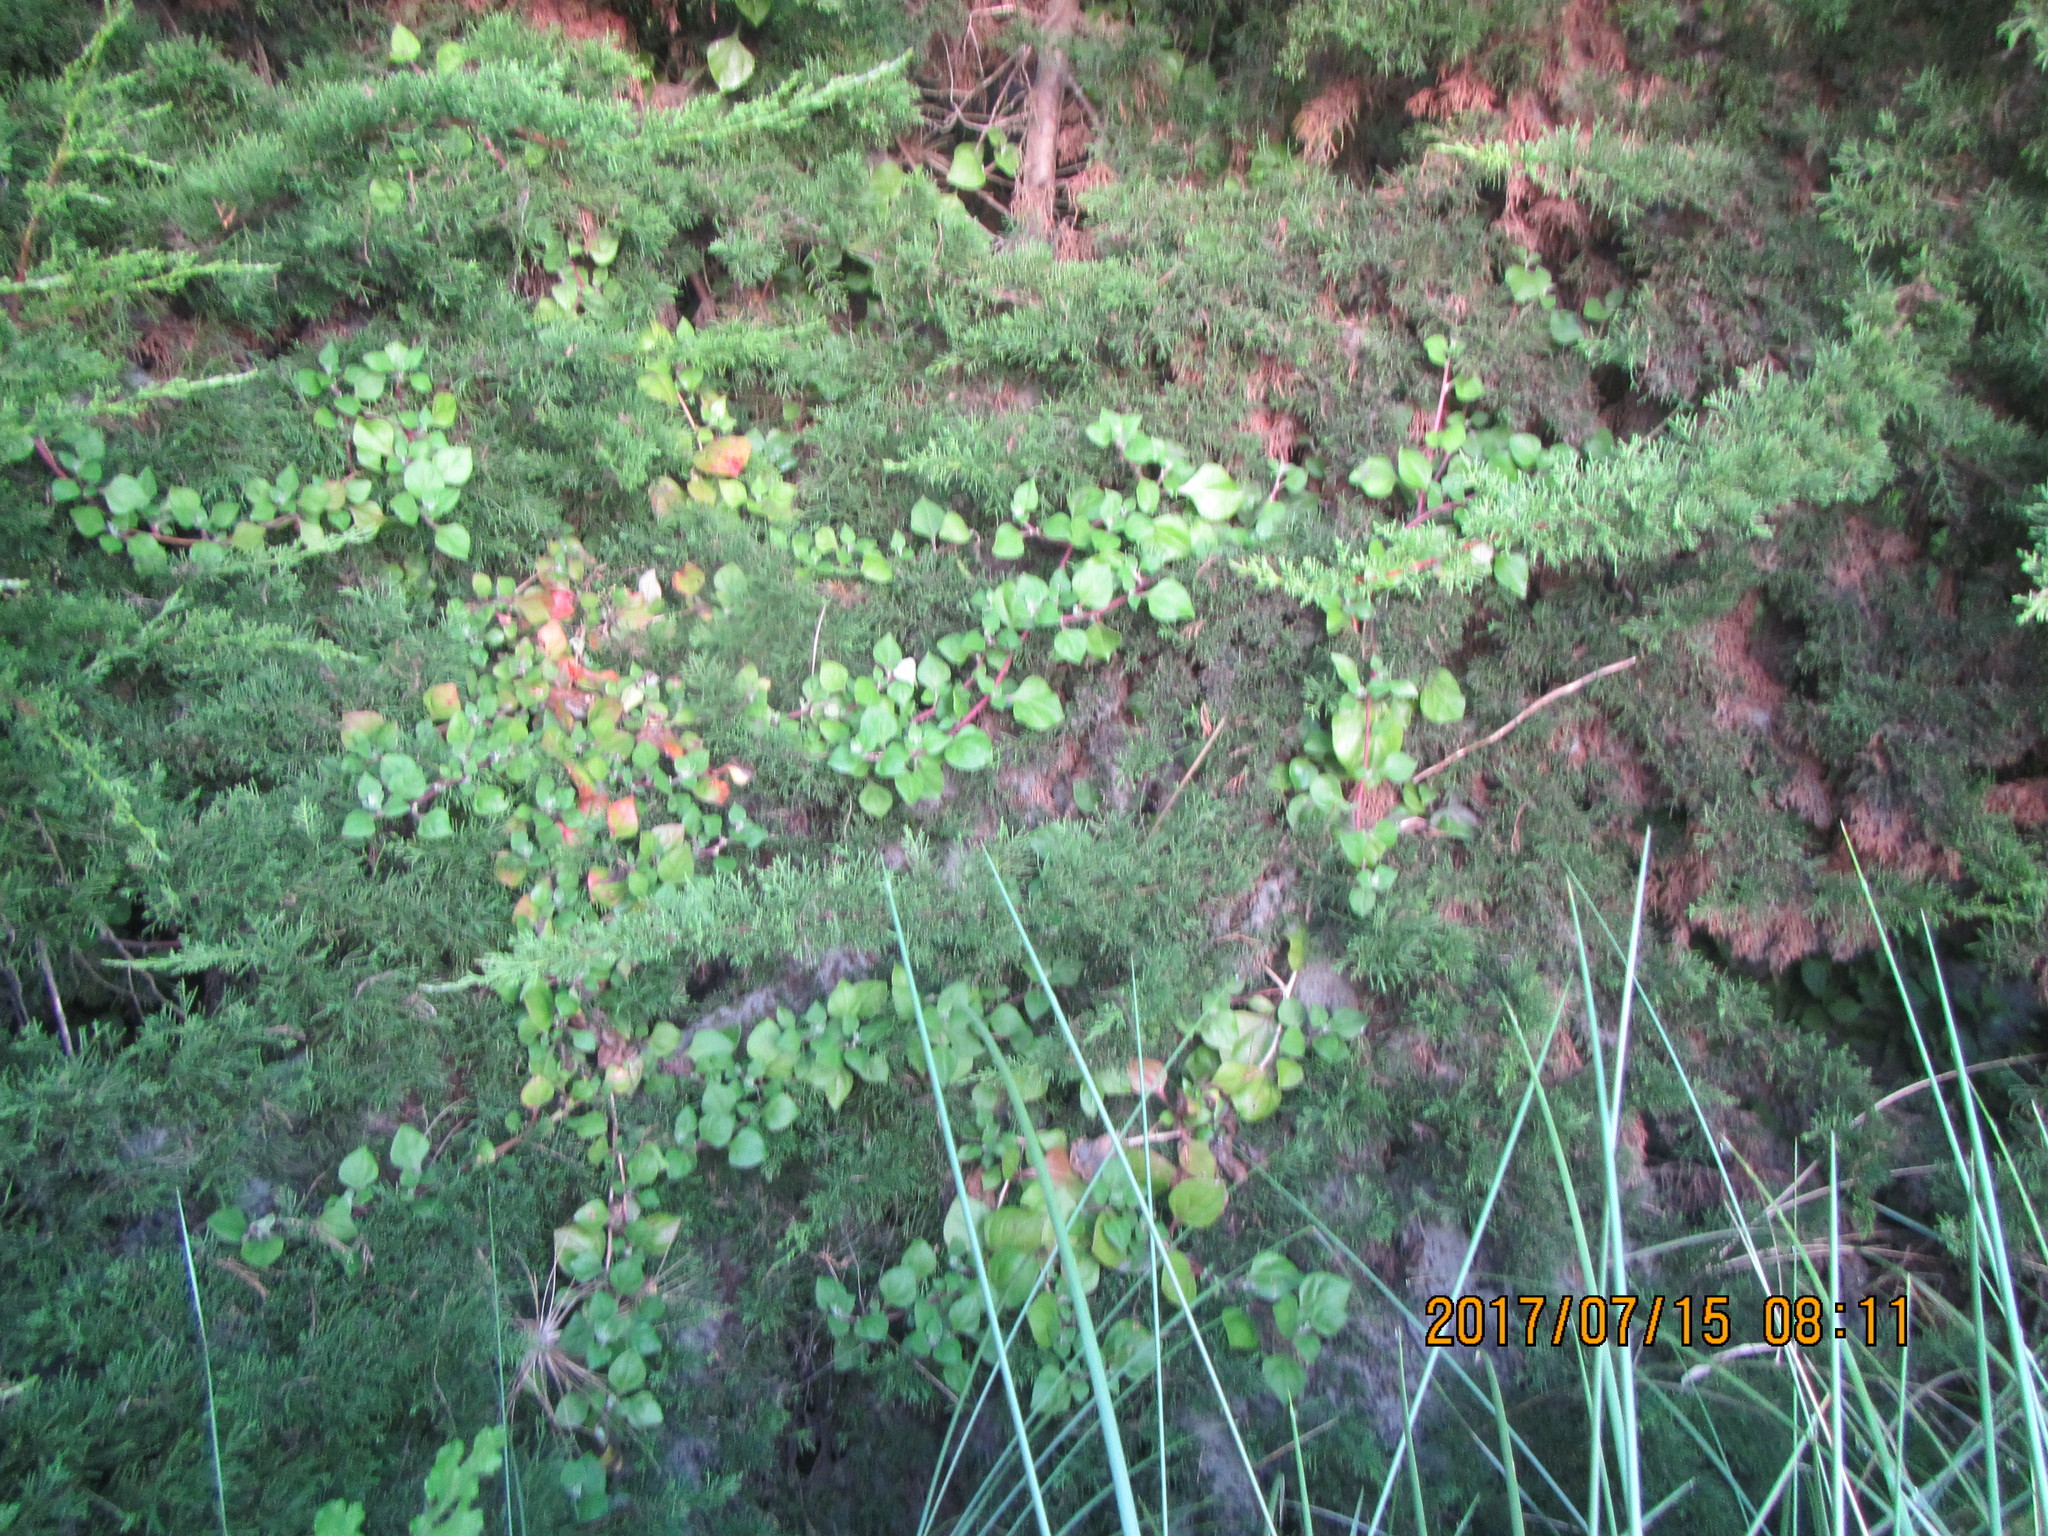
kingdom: Plantae
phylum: Tracheophyta
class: Magnoliopsida
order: Caryophyllales
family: Aizoaceae
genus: Tetragonia
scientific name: Tetragonia implexicoma
